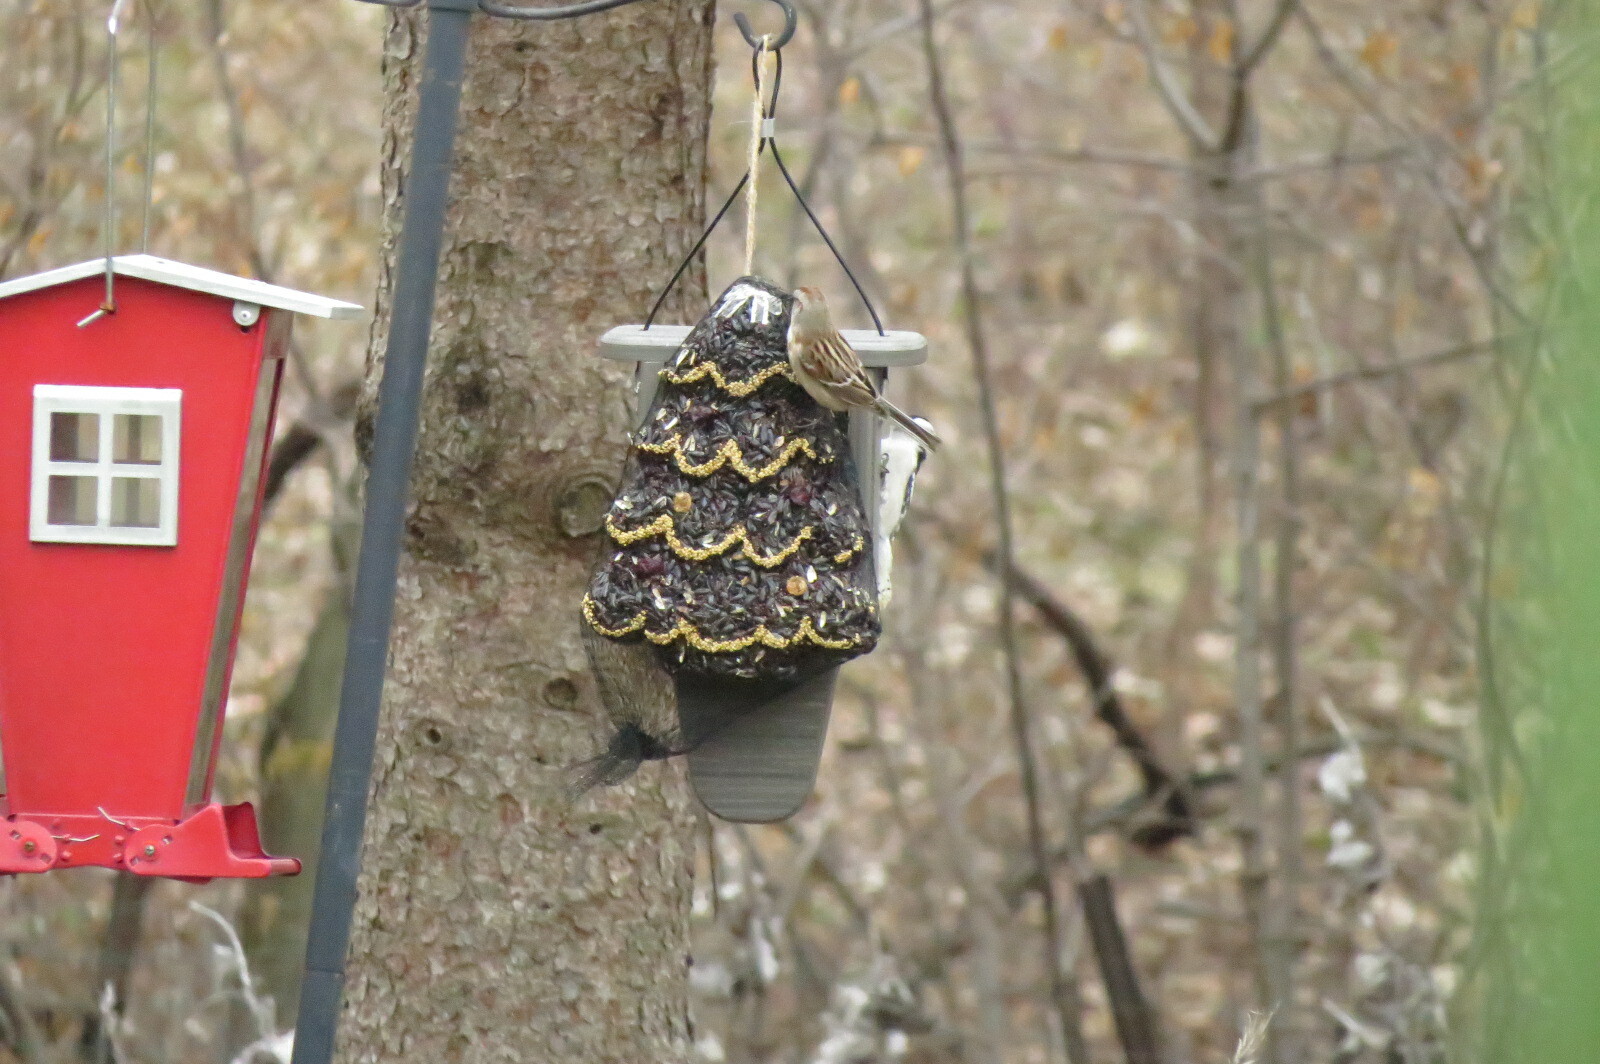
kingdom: Animalia
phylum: Chordata
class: Aves
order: Passeriformes
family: Passerellidae
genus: Spizelloides
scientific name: Spizelloides arborea
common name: American tree sparrow
